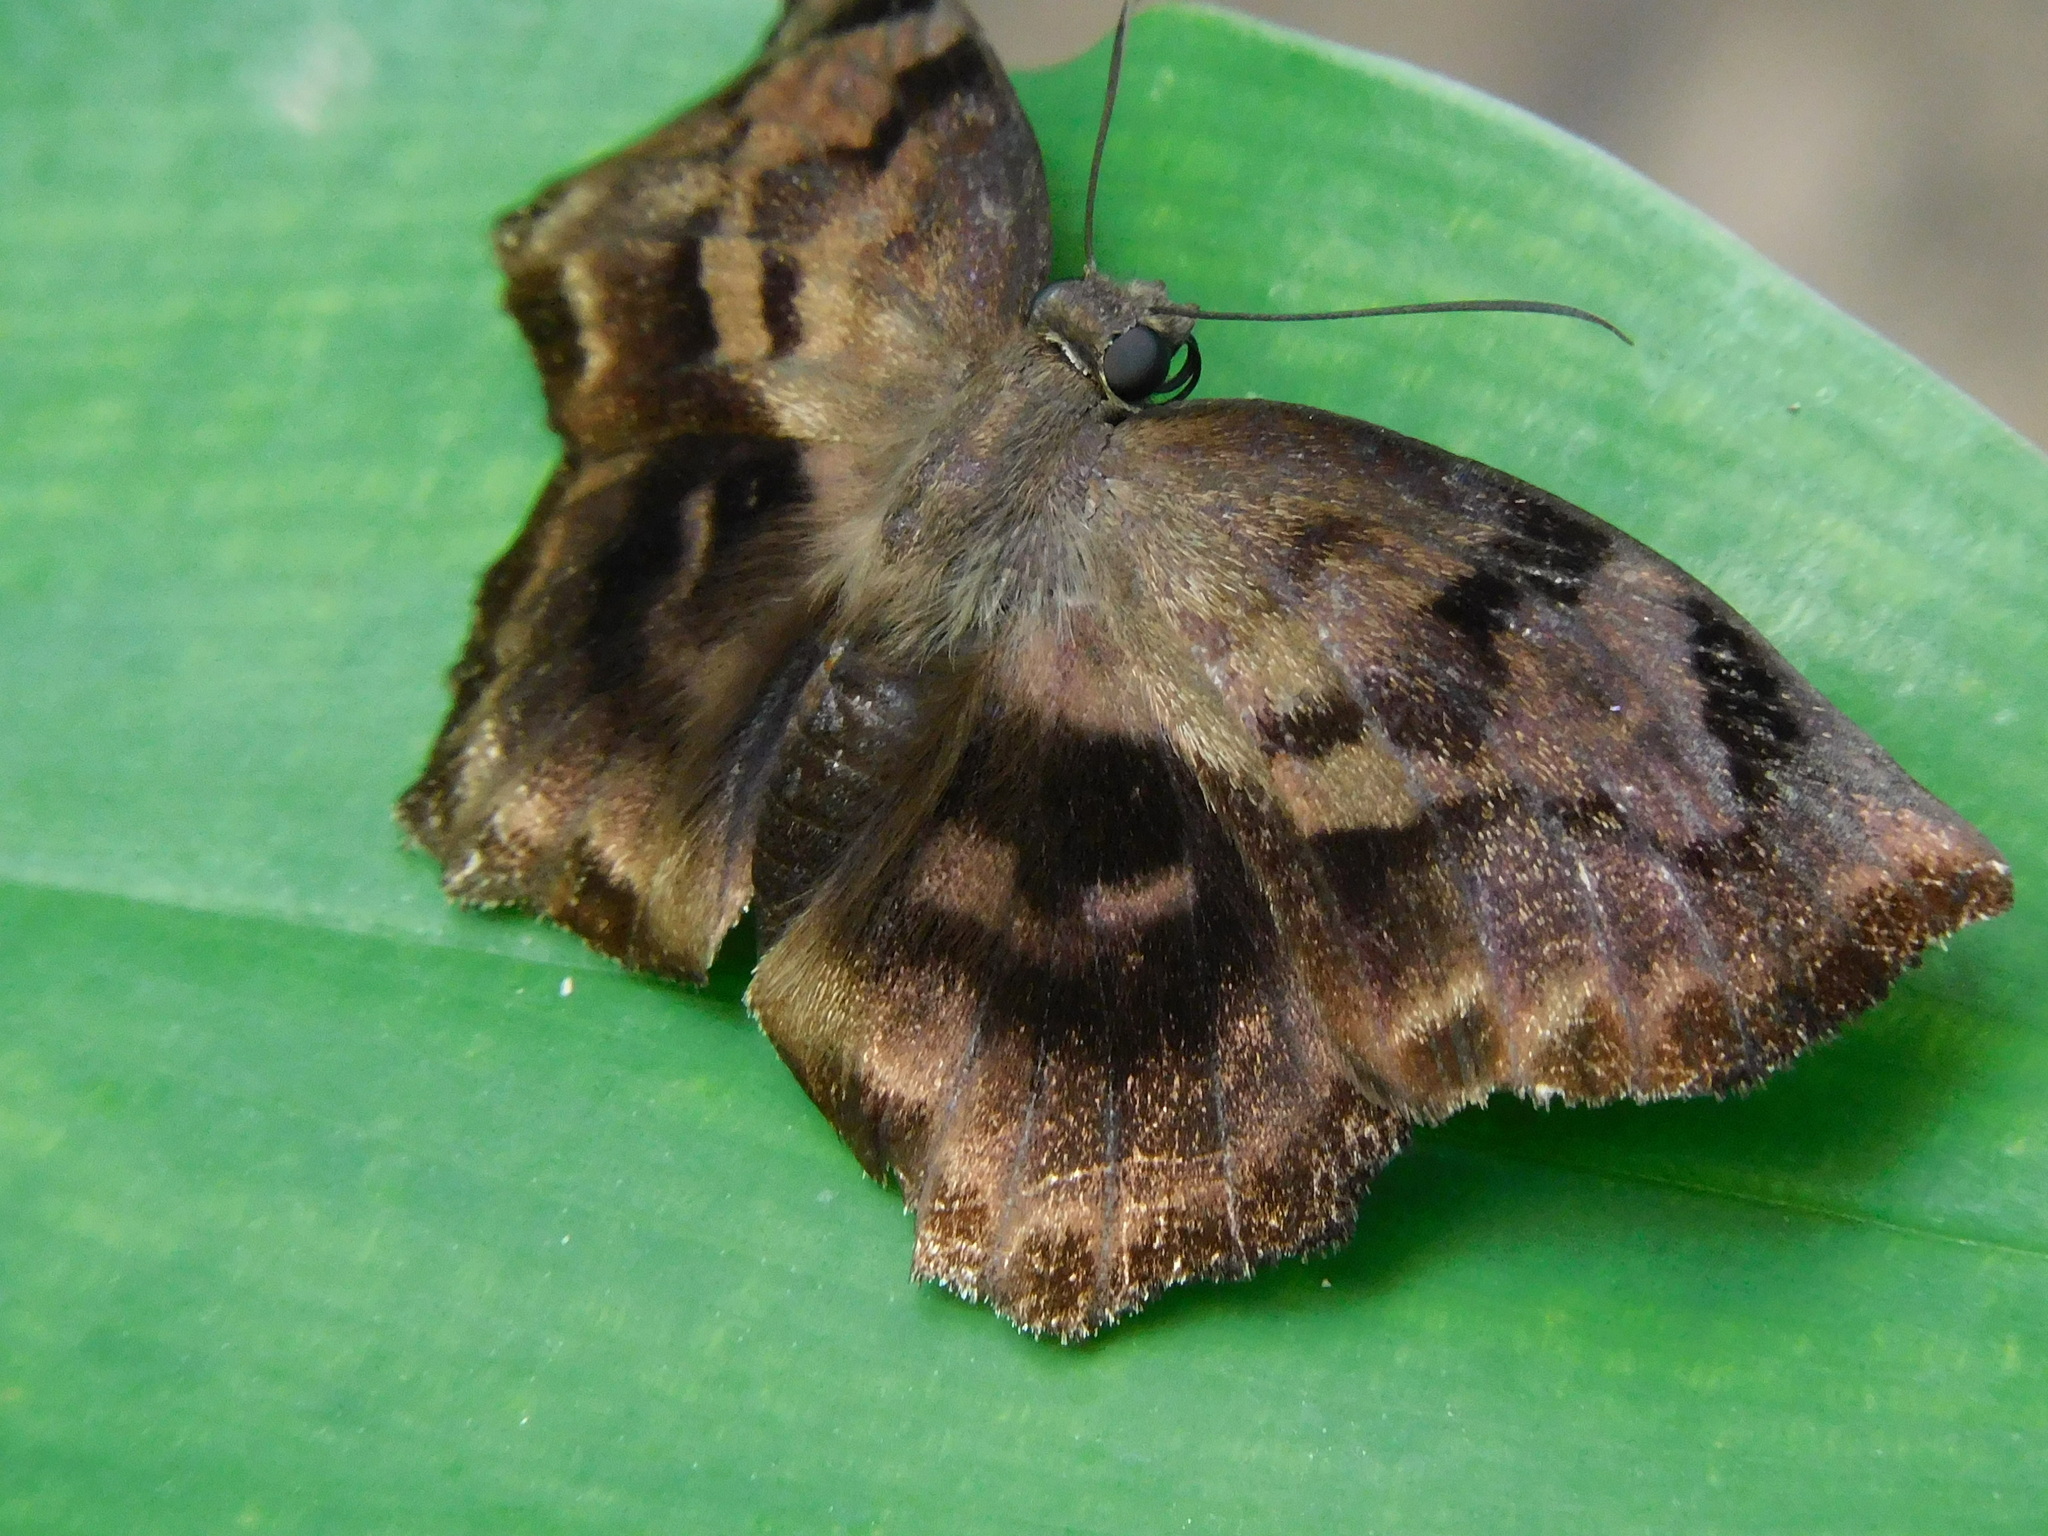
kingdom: Animalia
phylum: Arthropoda
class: Insecta
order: Lepidoptera
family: Hesperiidae
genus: Achlyodes
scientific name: Achlyodes busirus
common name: Giant sicklewing
